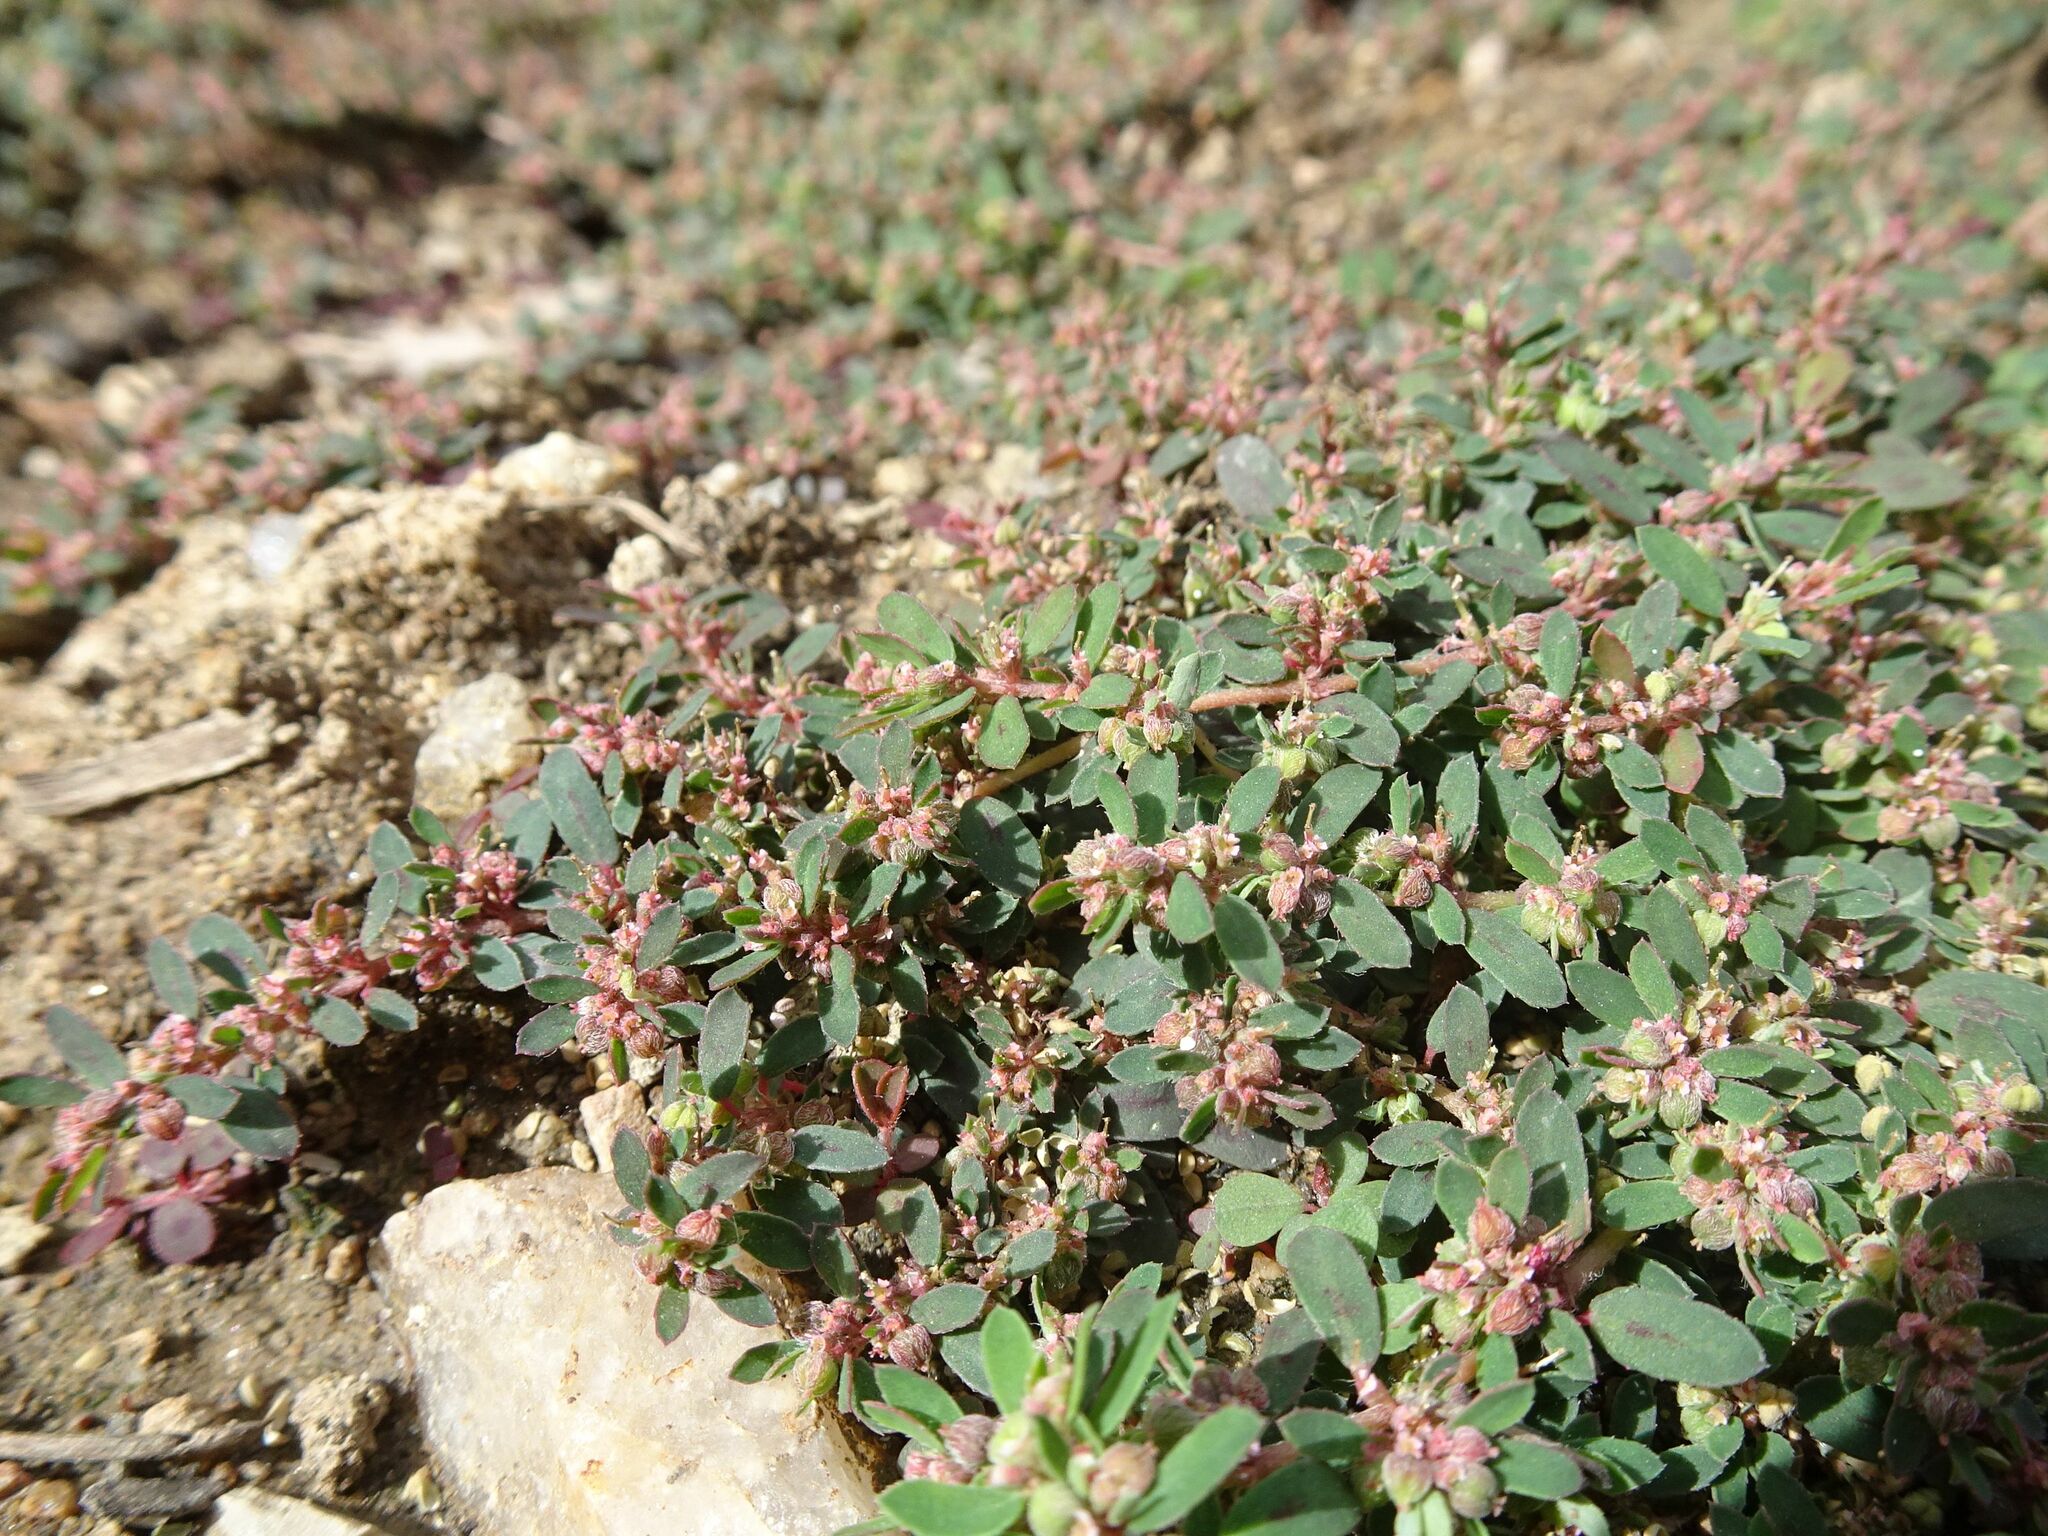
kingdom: Plantae
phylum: Tracheophyta
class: Magnoliopsida
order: Malpighiales
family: Euphorbiaceae
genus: Euphorbia
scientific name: Euphorbia maculata
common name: Spotted spurge
